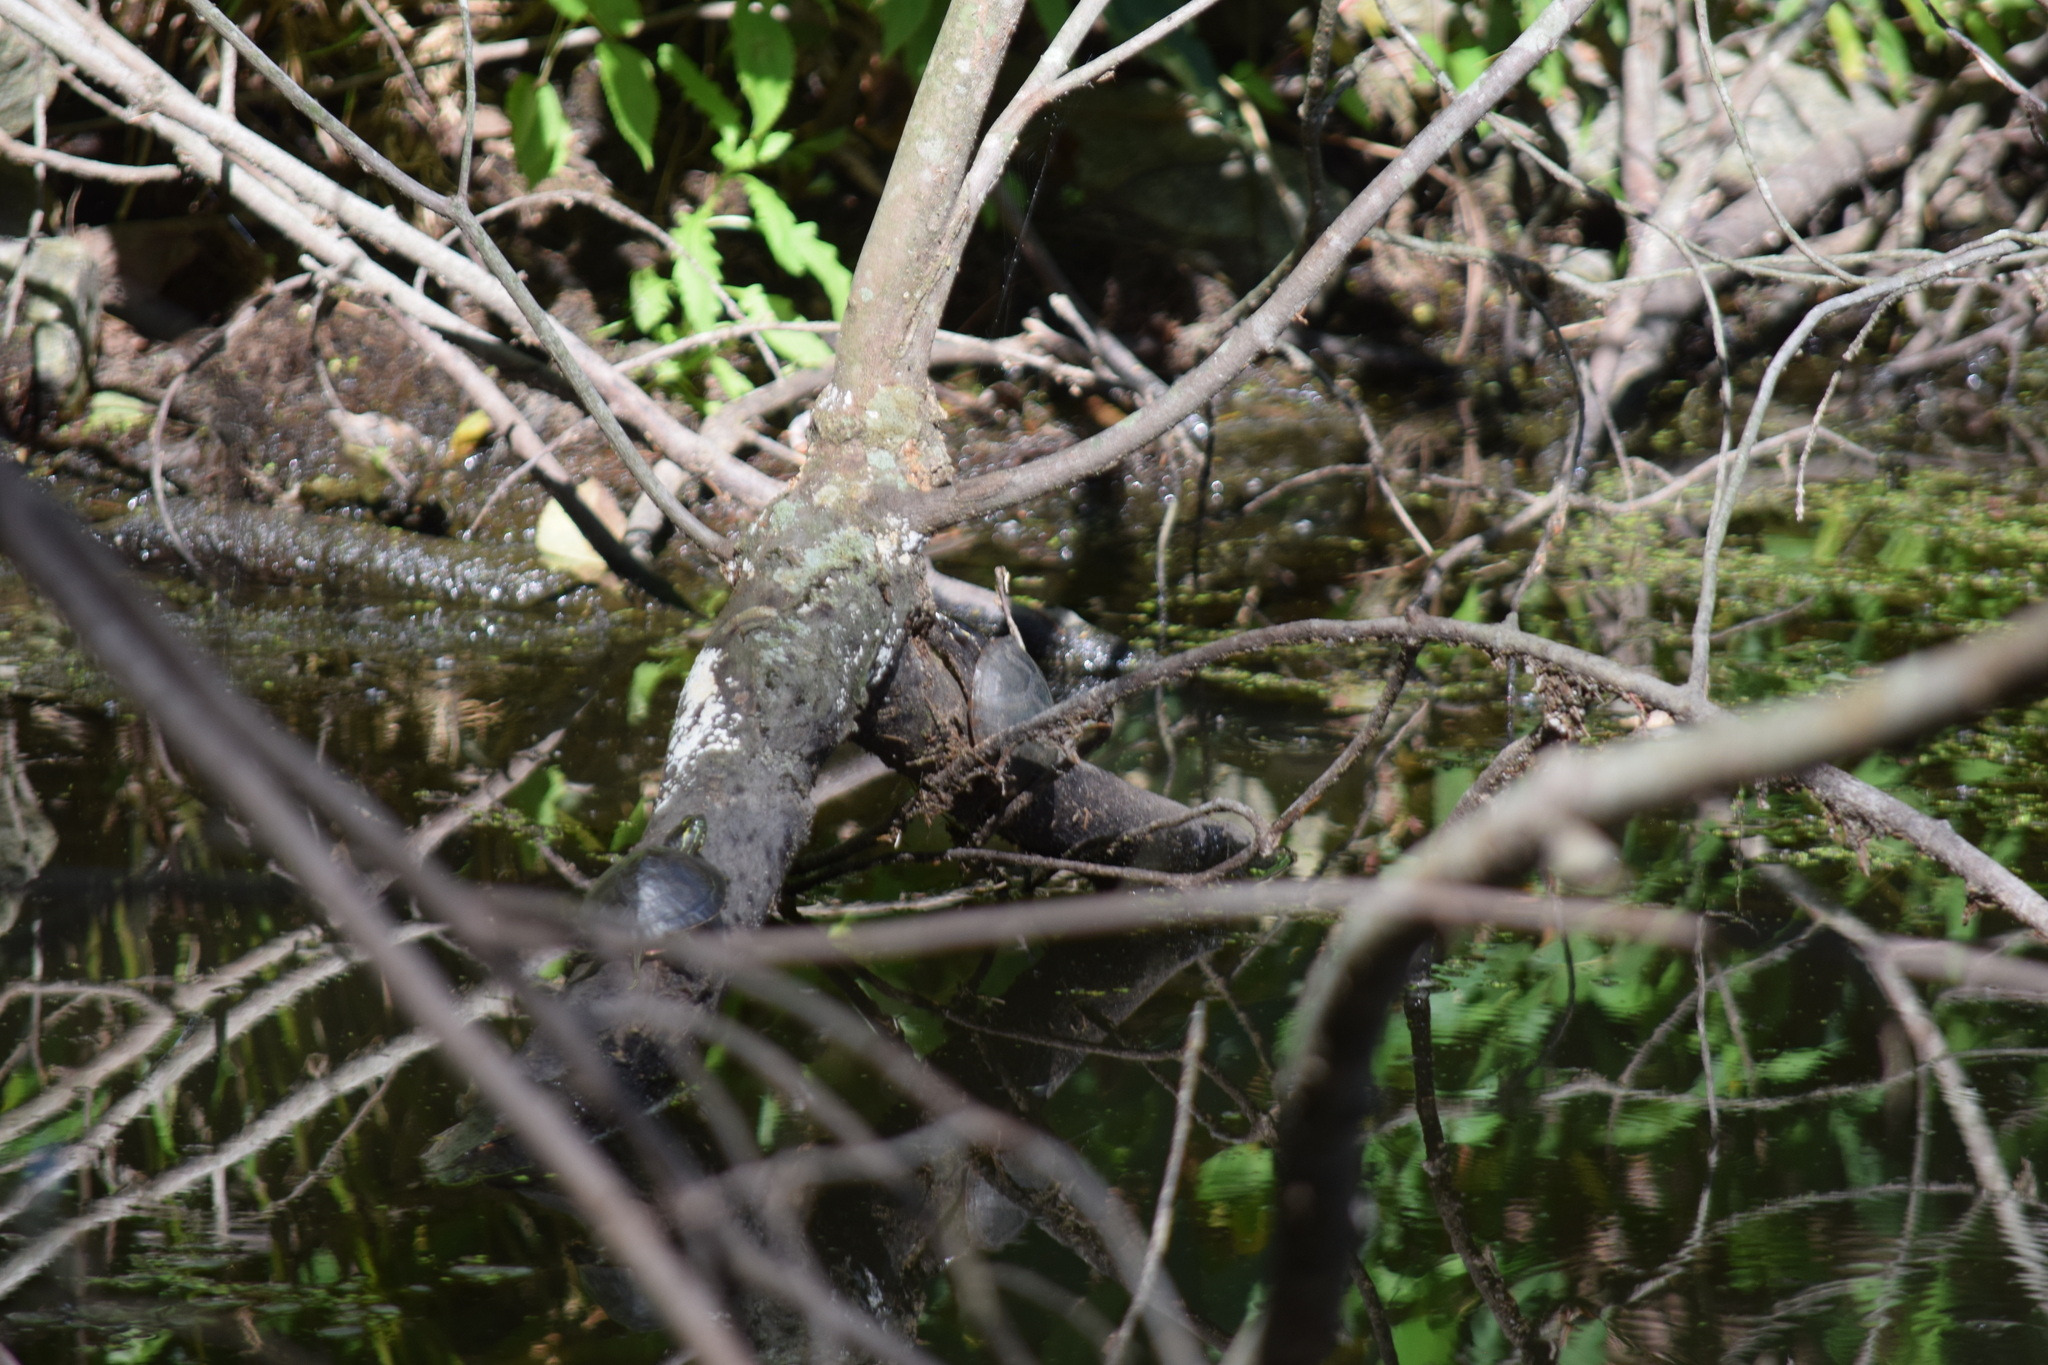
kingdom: Animalia
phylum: Chordata
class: Testudines
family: Kinosternidae
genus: Sternotherus
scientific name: Sternotherus odoratus
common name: Common musk turtle
